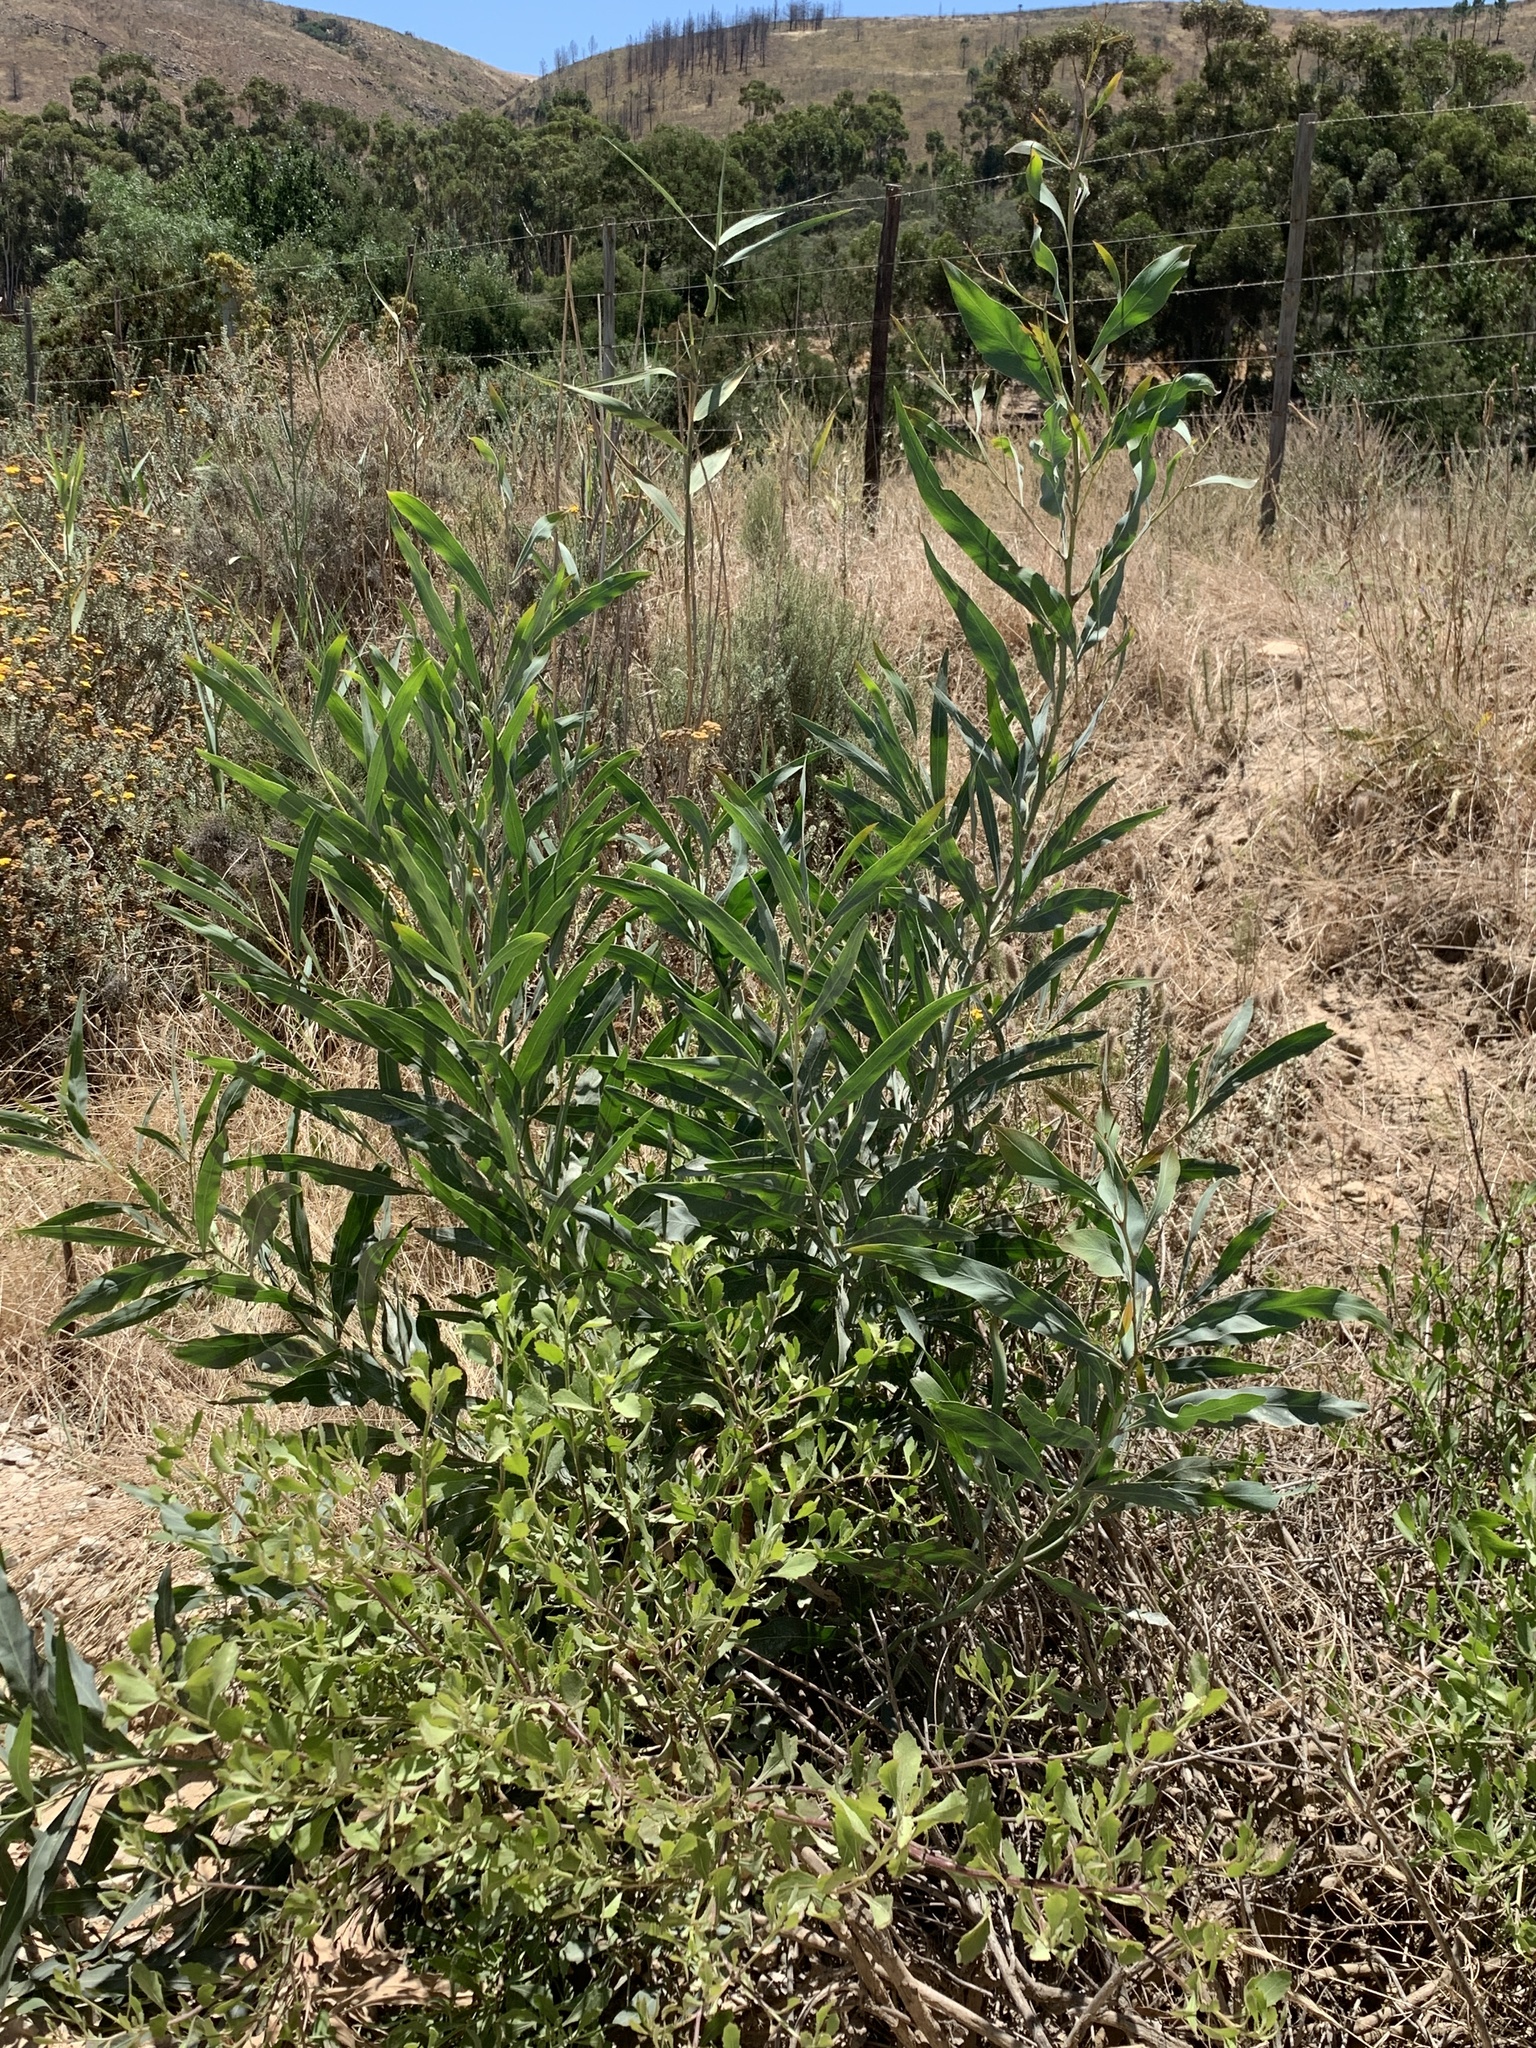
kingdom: Plantae
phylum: Tracheophyta
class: Magnoliopsida
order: Fabales
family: Fabaceae
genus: Acacia
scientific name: Acacia saligna
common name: Orange wattle
